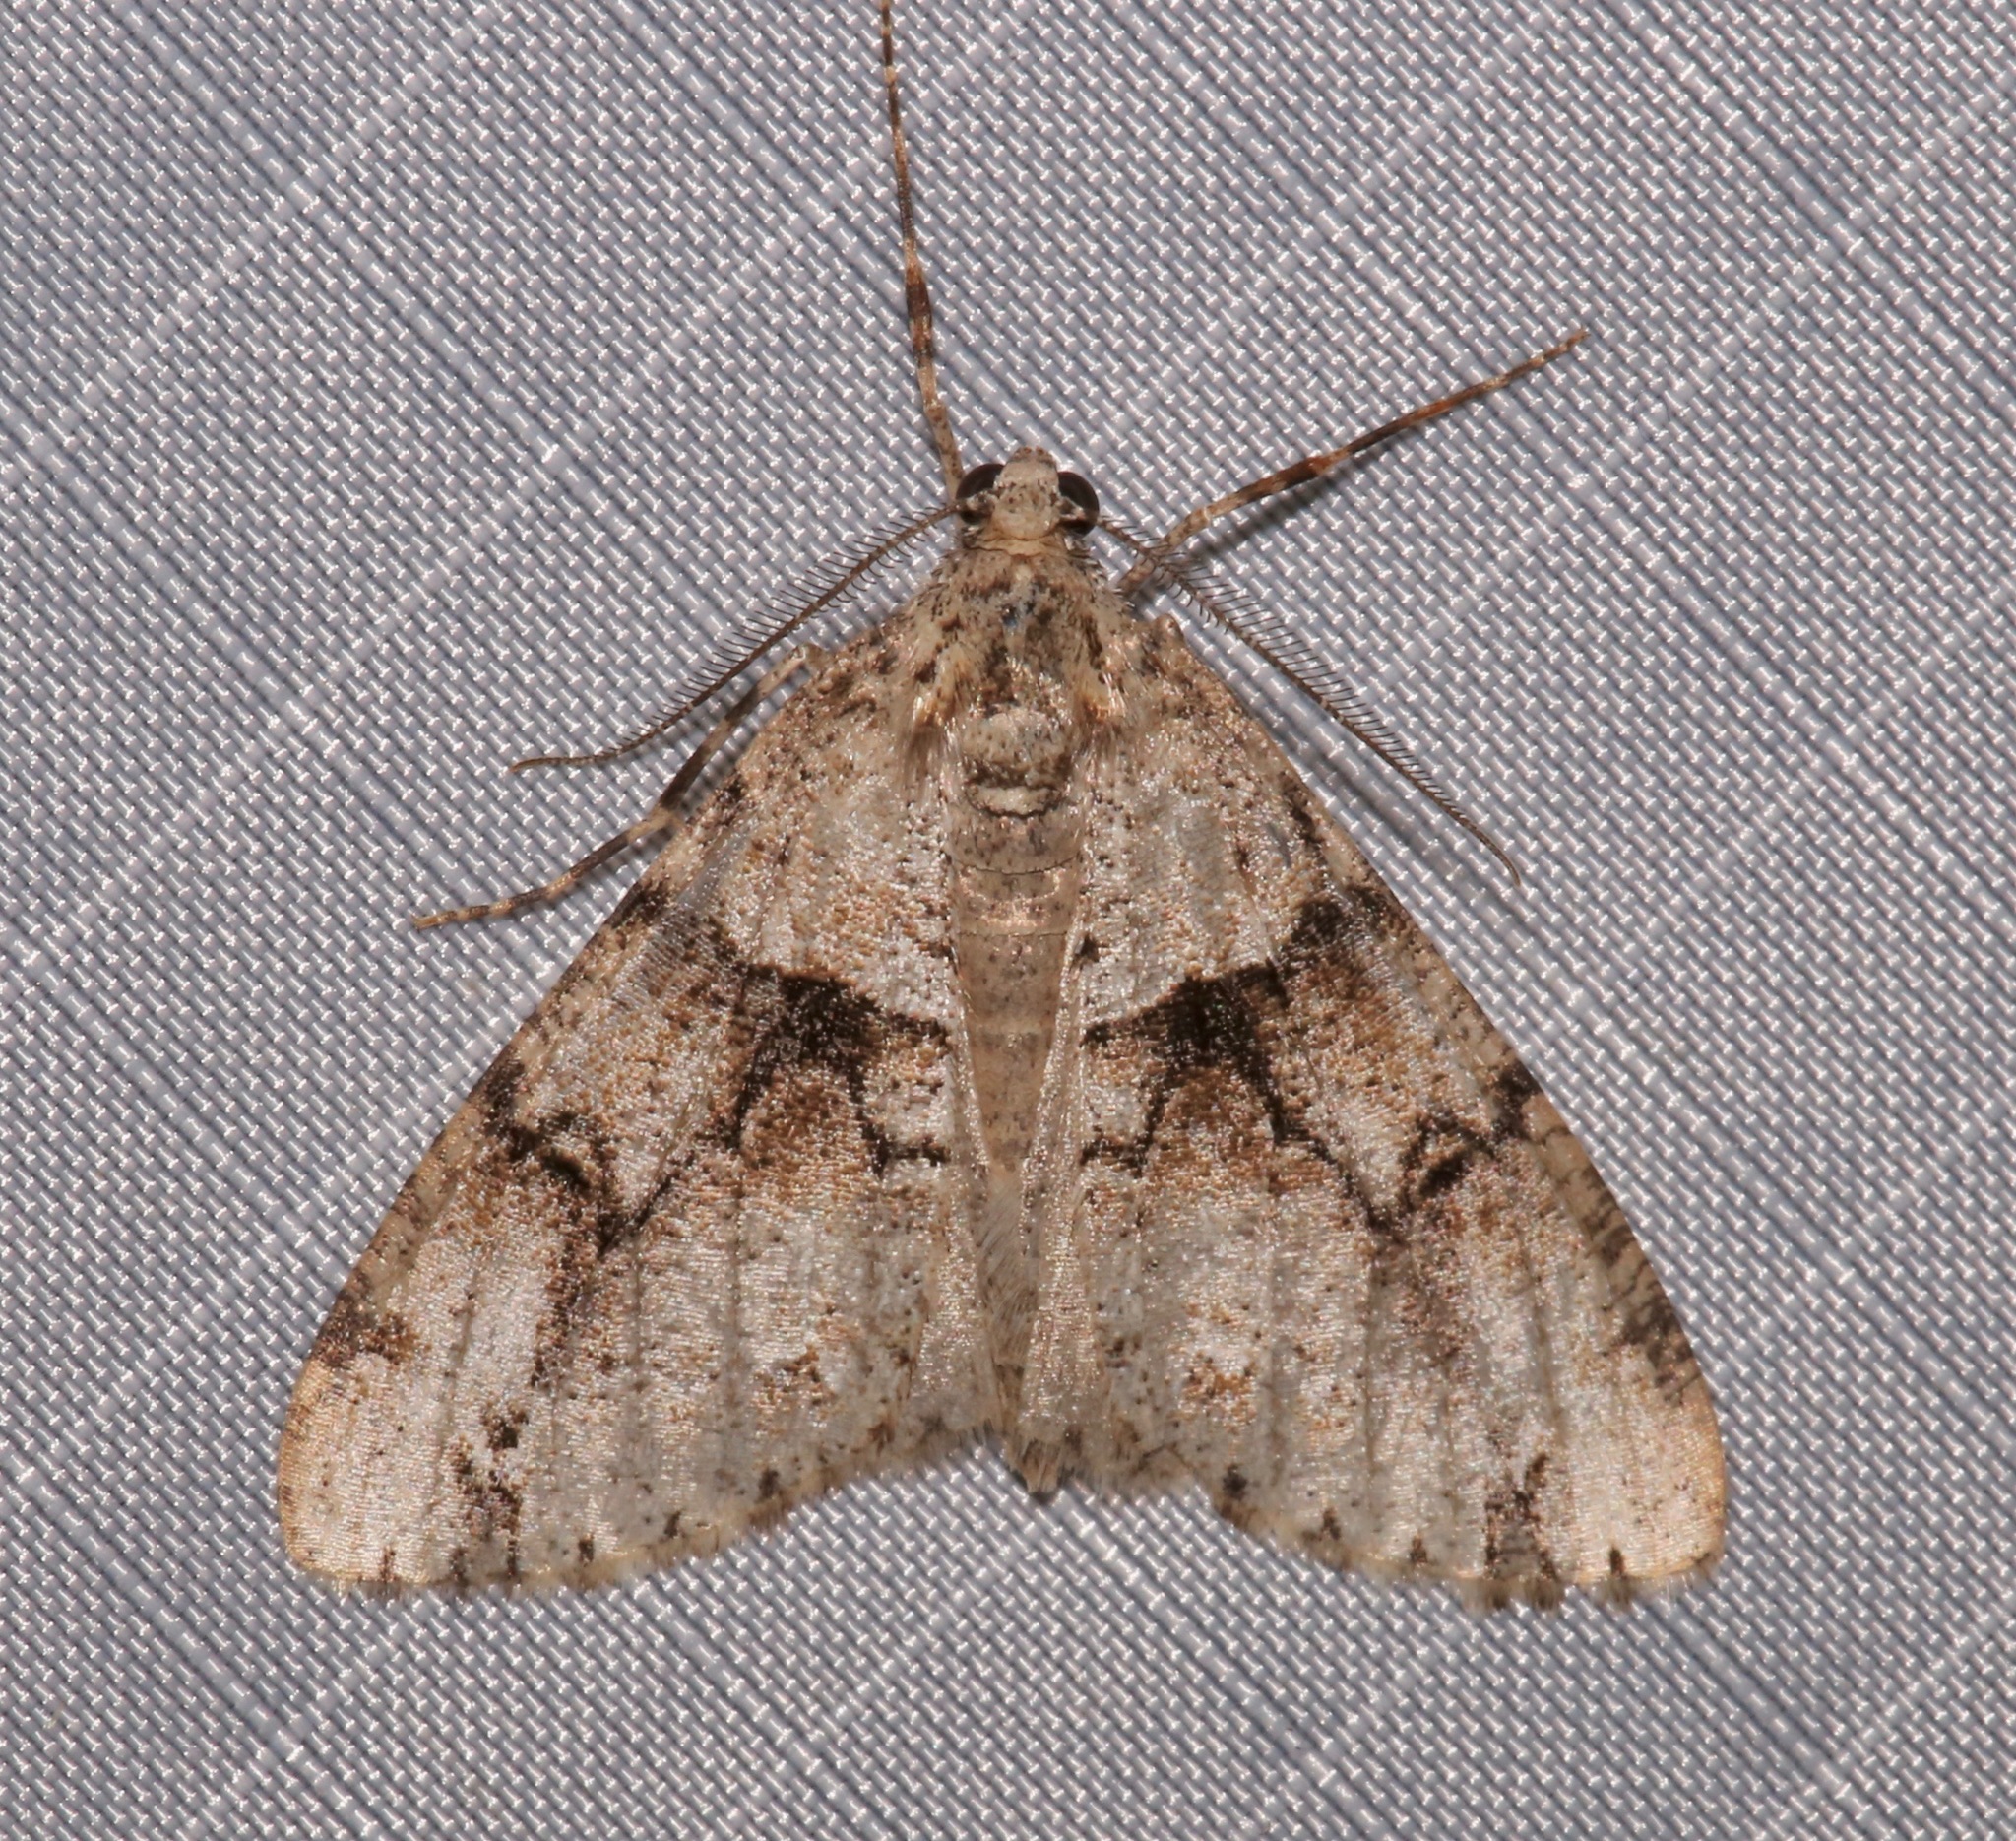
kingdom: Animalia
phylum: Arthropoda
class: Insecta
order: Lepidoptera
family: Geometridae
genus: Vinemina
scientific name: Vinemina opacaria
